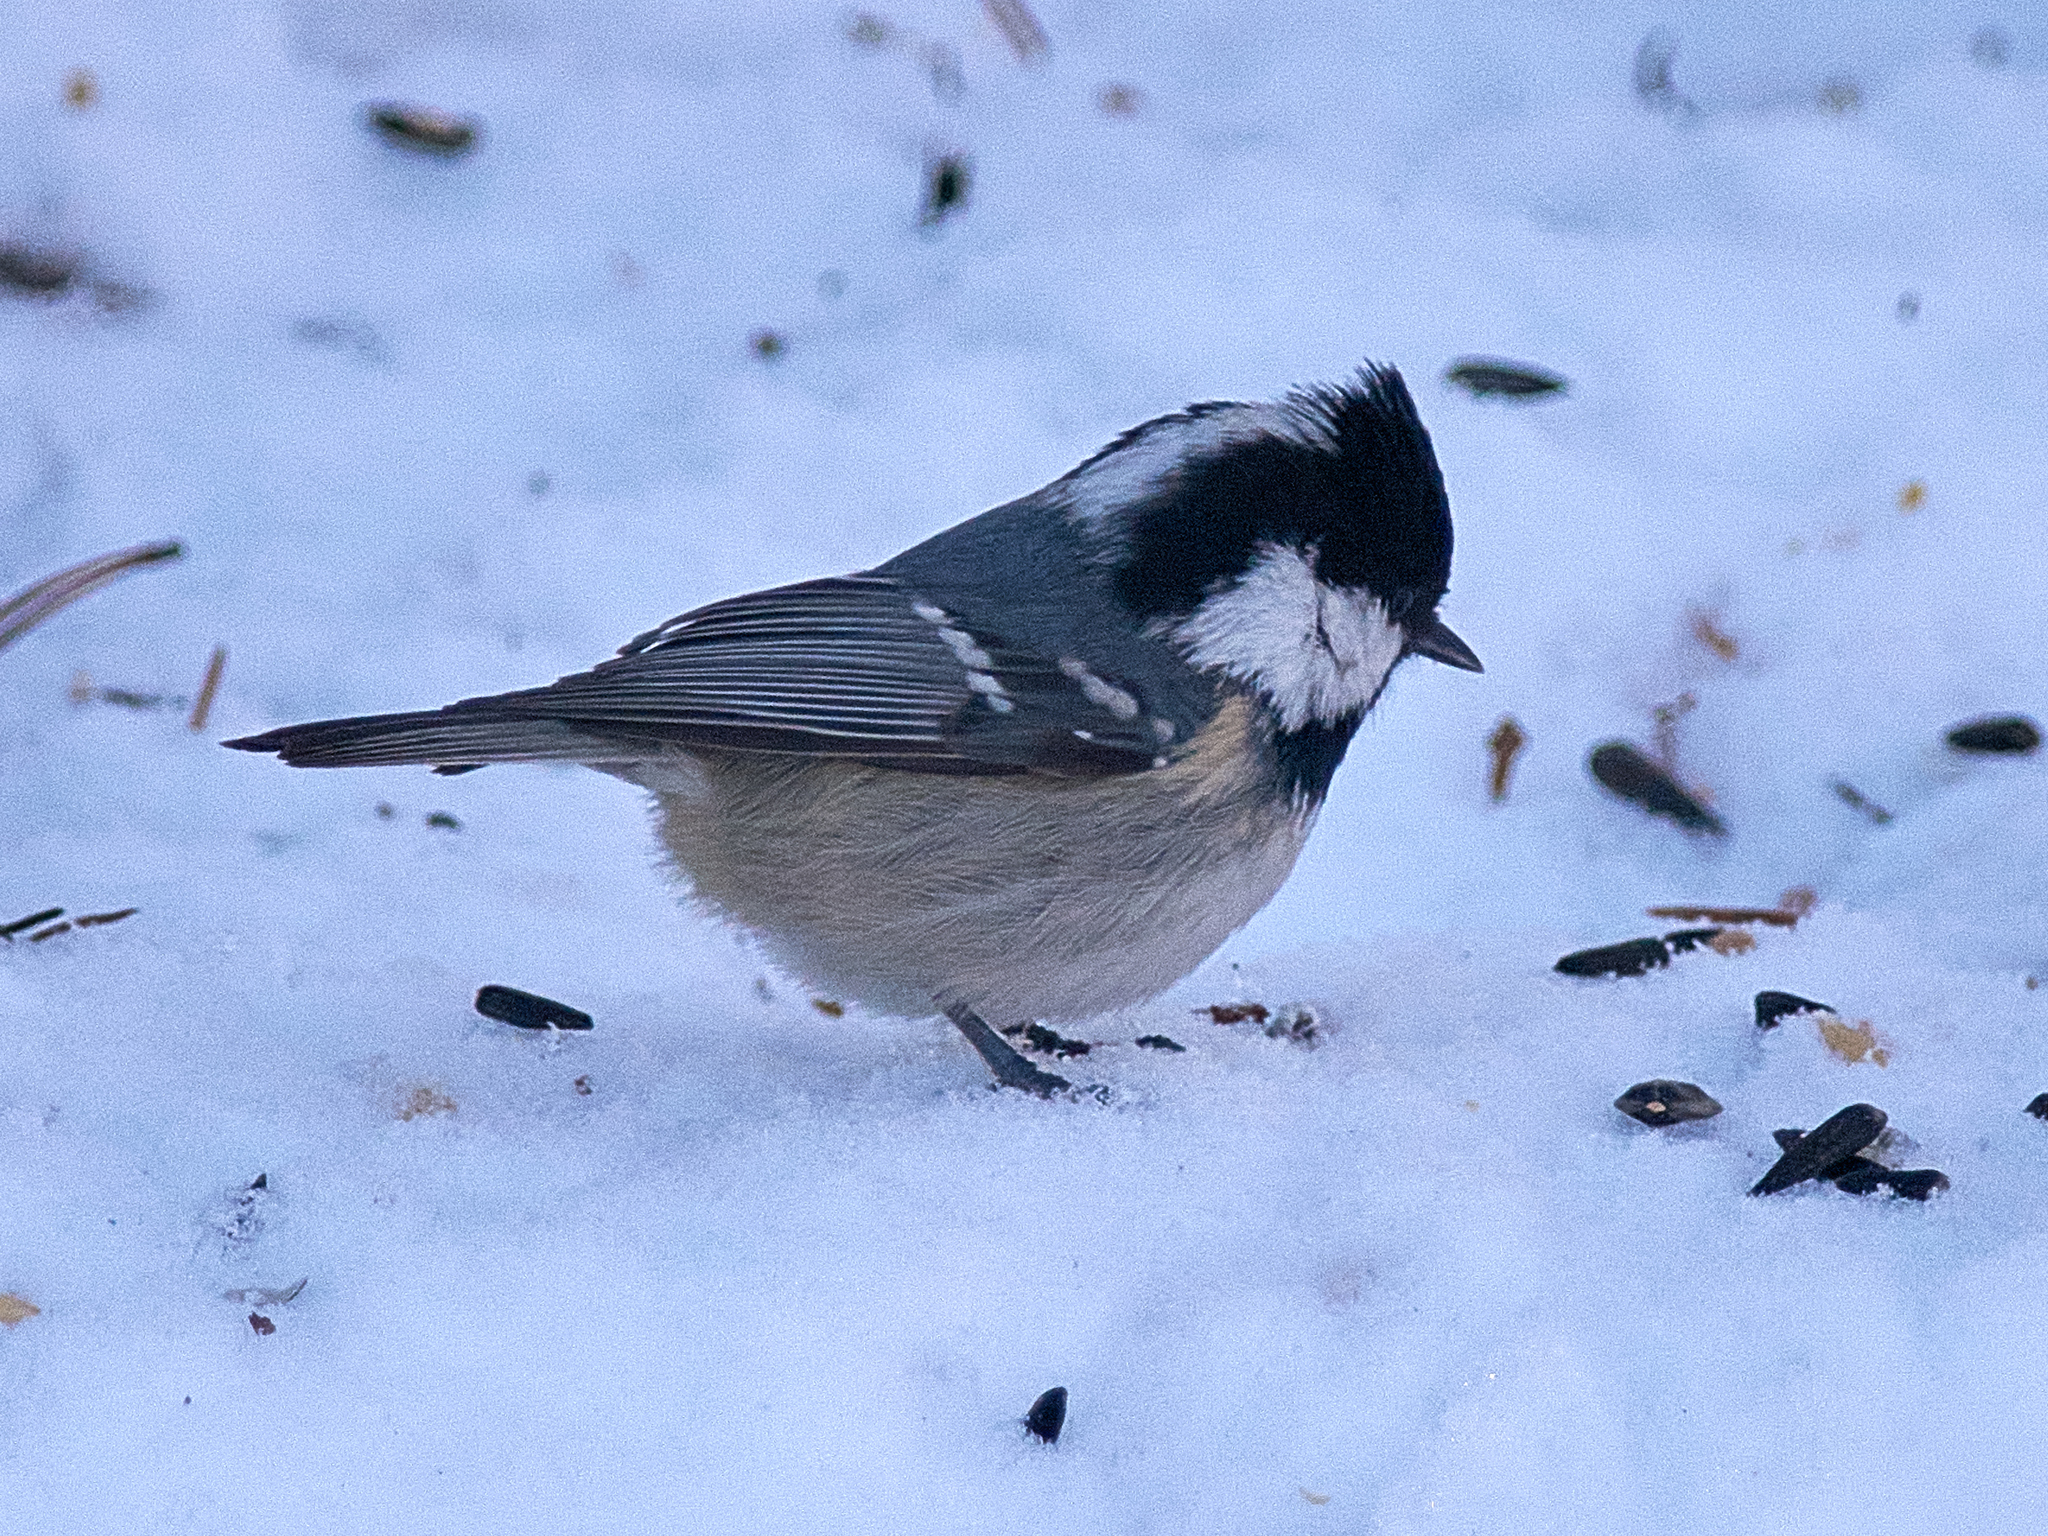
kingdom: Animalia
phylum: Chordata
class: Aves
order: Passeriformes
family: Paridae
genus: Periparus
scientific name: Periparus ater
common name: Coal tit
